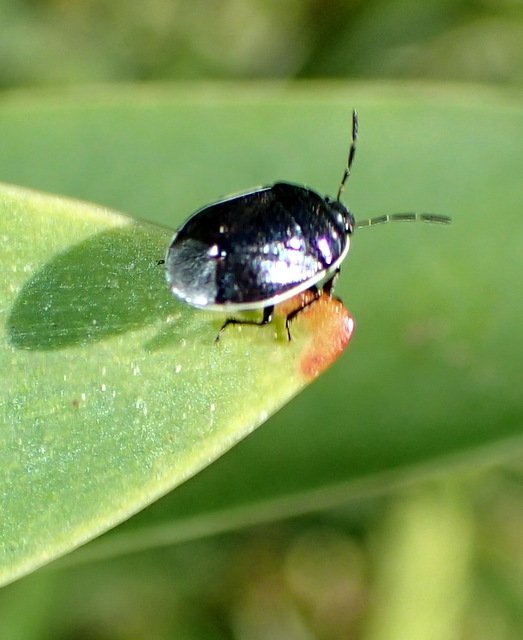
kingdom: Animalia
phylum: Arthropoda
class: Insecta
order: Hemiptera
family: Cydnidae
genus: Sehirus
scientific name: Sehirus cinctus
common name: White-margined burrower bug
